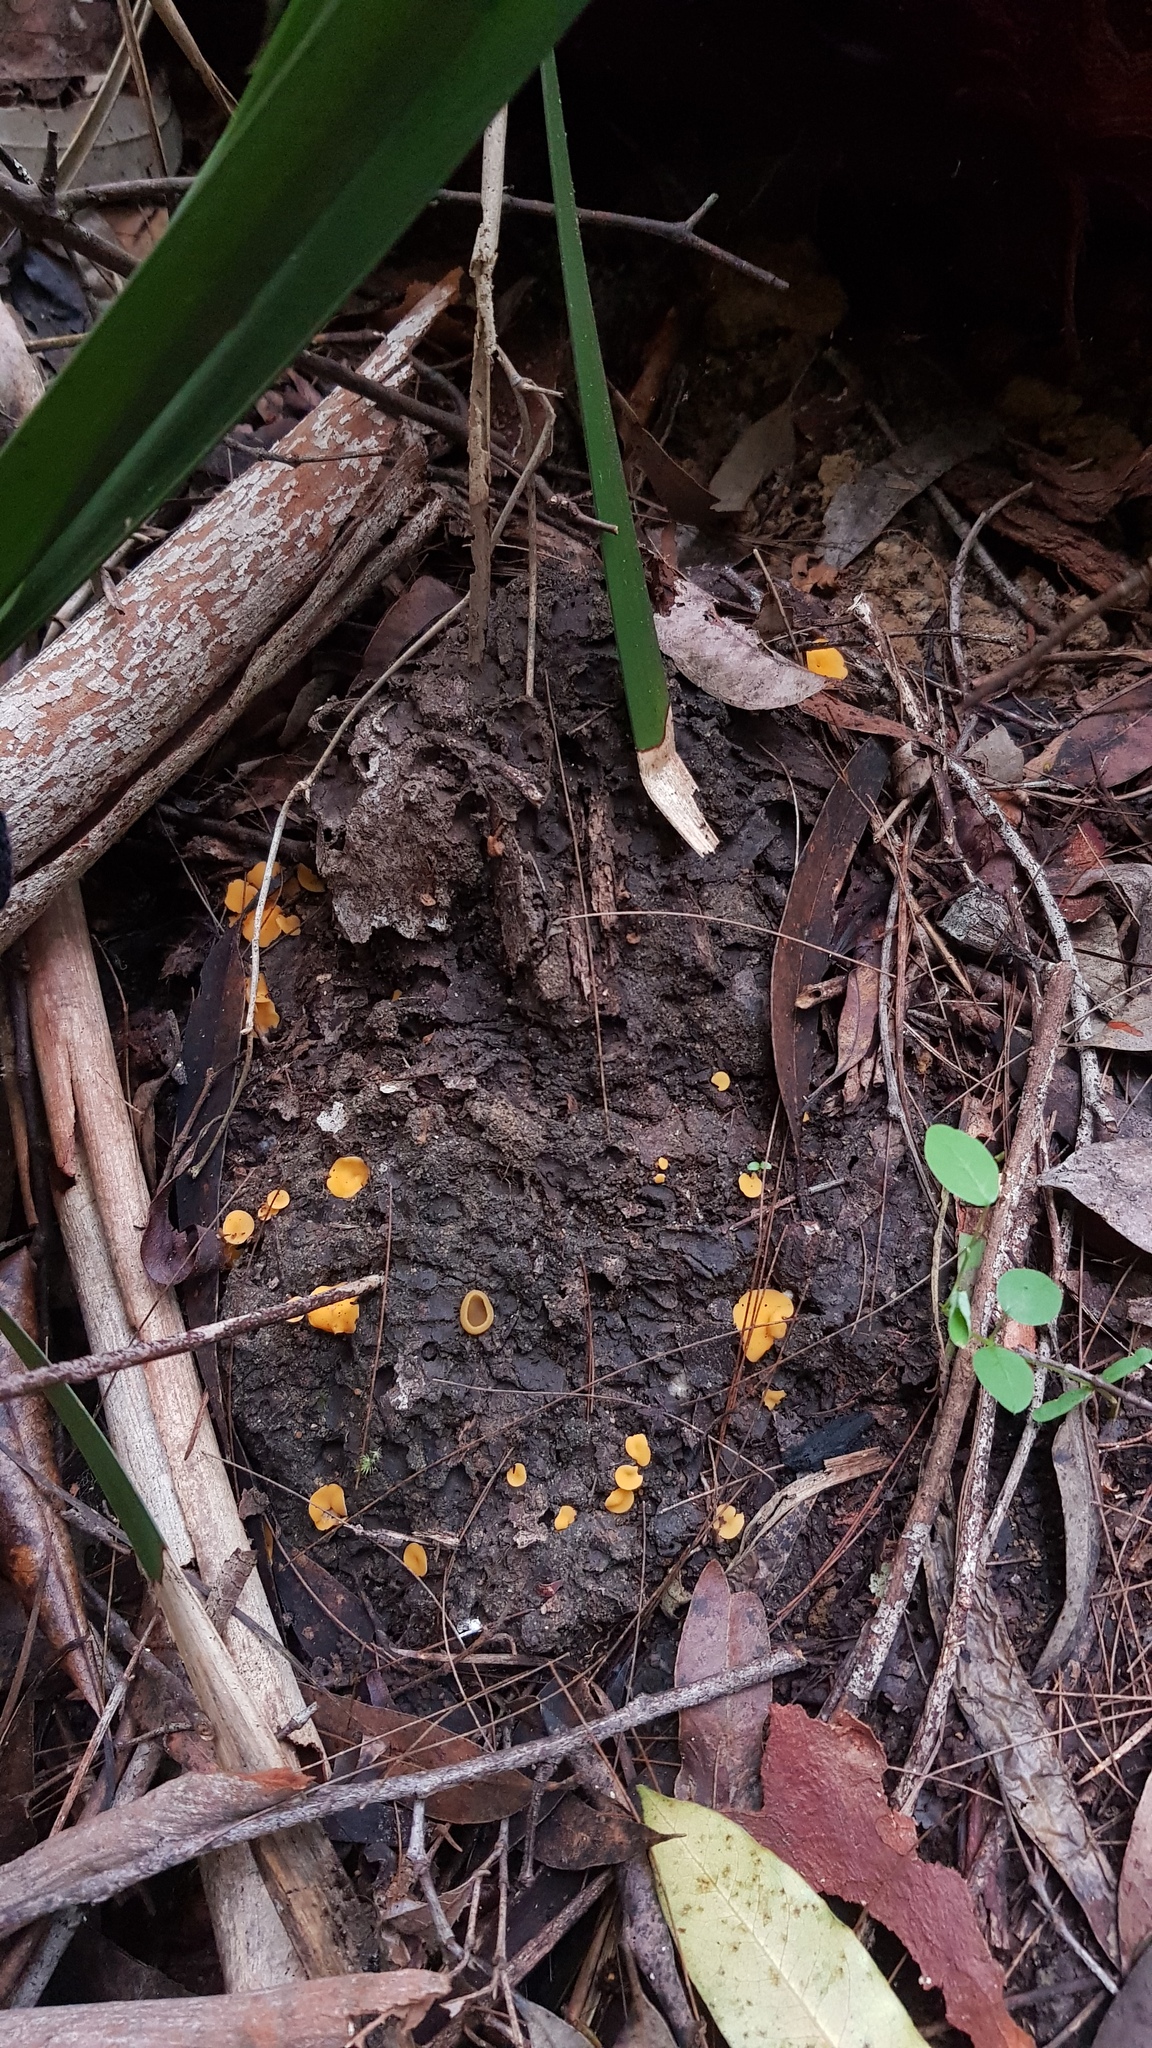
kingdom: Fungi
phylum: Ascomycota
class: Pezizomycetes
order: Pezizales
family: Pyronemataceae
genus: Aleurina
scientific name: Aleurina ferruginea
